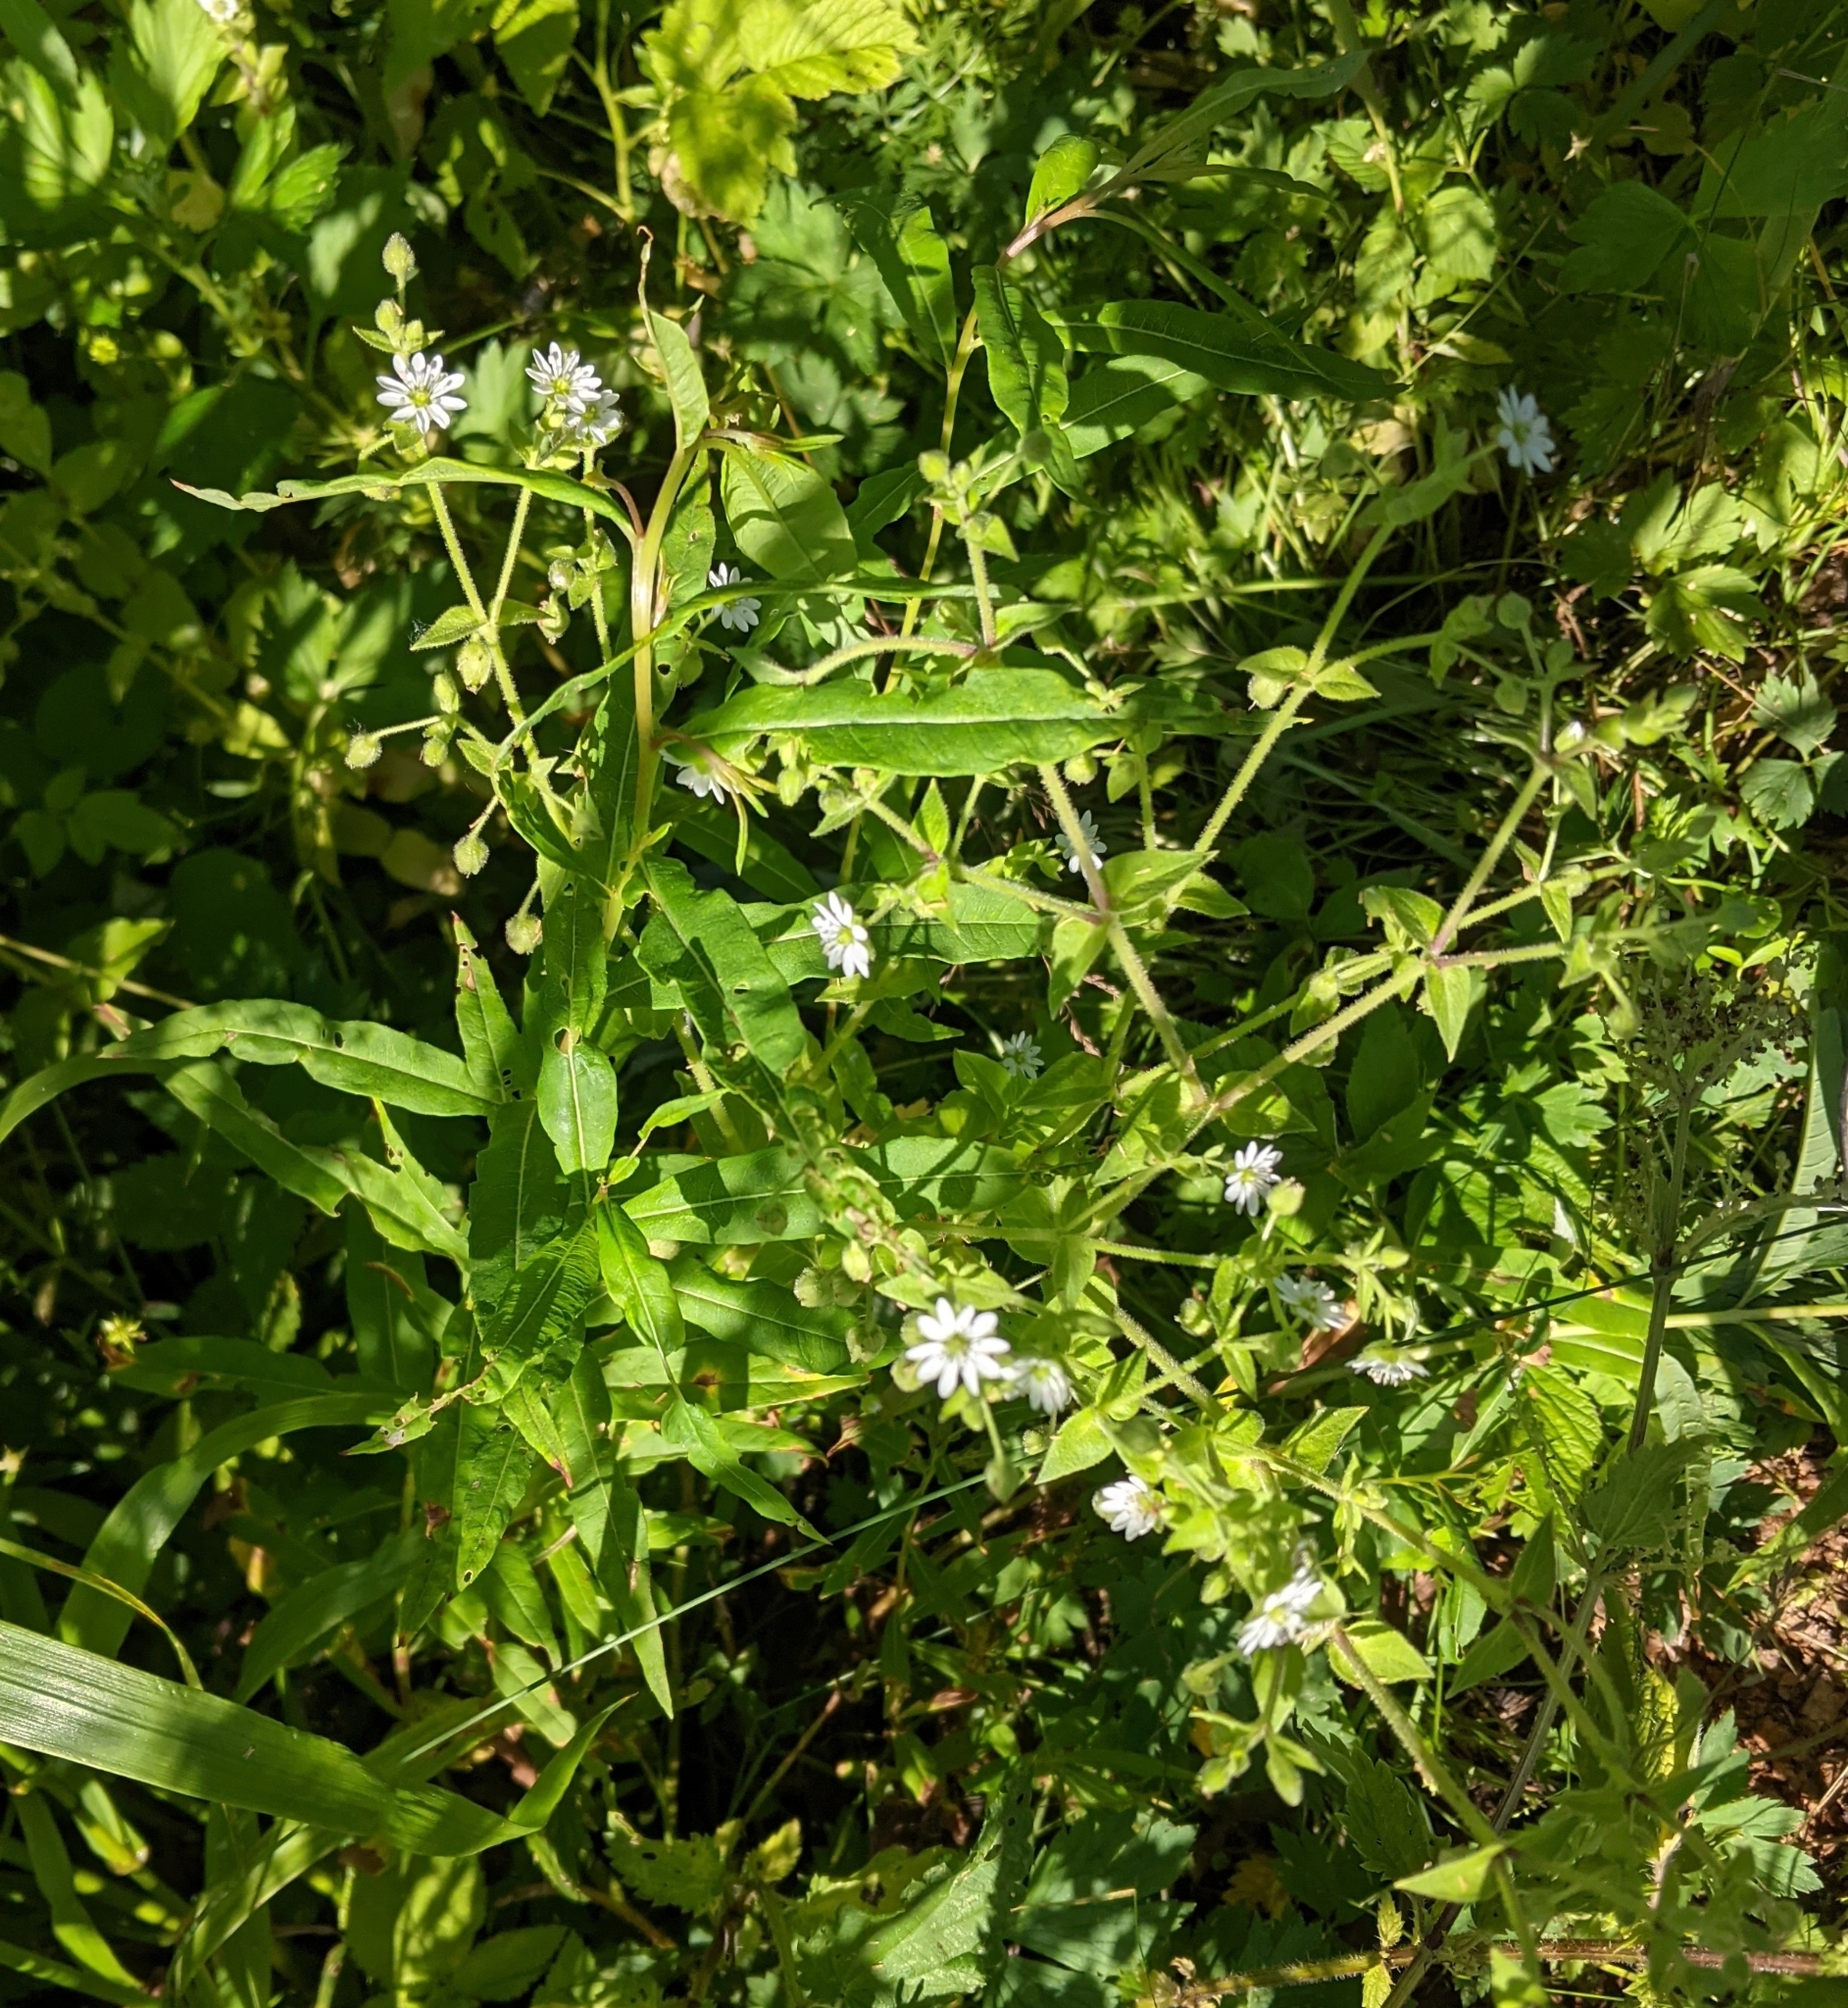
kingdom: Plantae
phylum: Tracheophyta
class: Magnoliopsida
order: Caryophyllales
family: Caryophyllaceae
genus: Stellaria
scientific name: Stellaria aquatica
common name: Water chickweed
